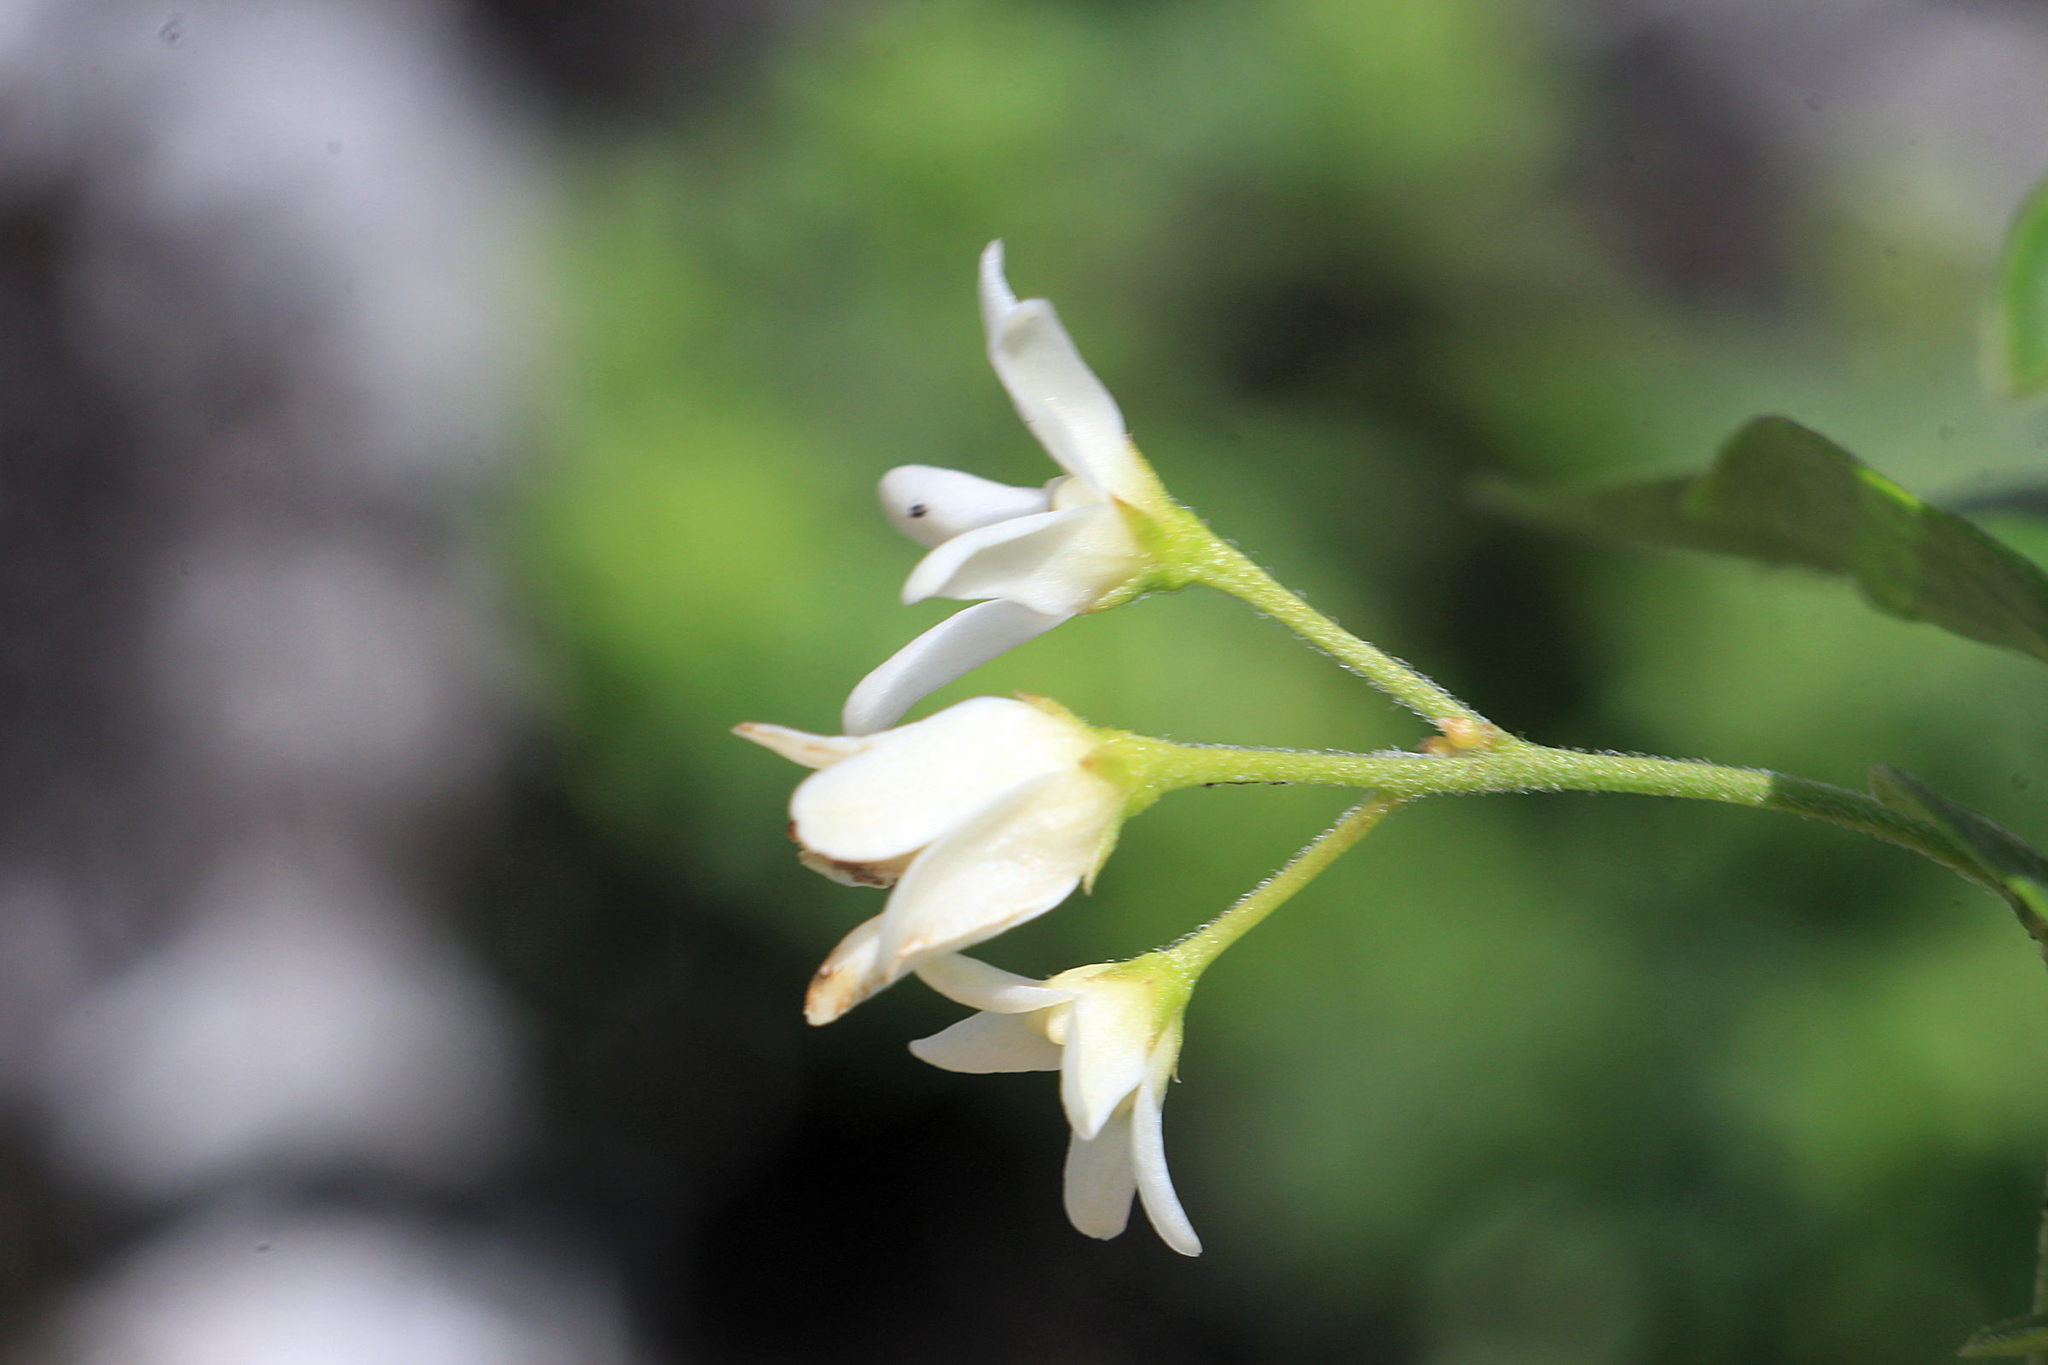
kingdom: Plantae
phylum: Tracheophyta
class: Magnoliopsida
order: Gentianales
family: Apocynaceae
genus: Vincetoxicum
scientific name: Vincetoxicum hirundinaria
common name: White swallowwort
